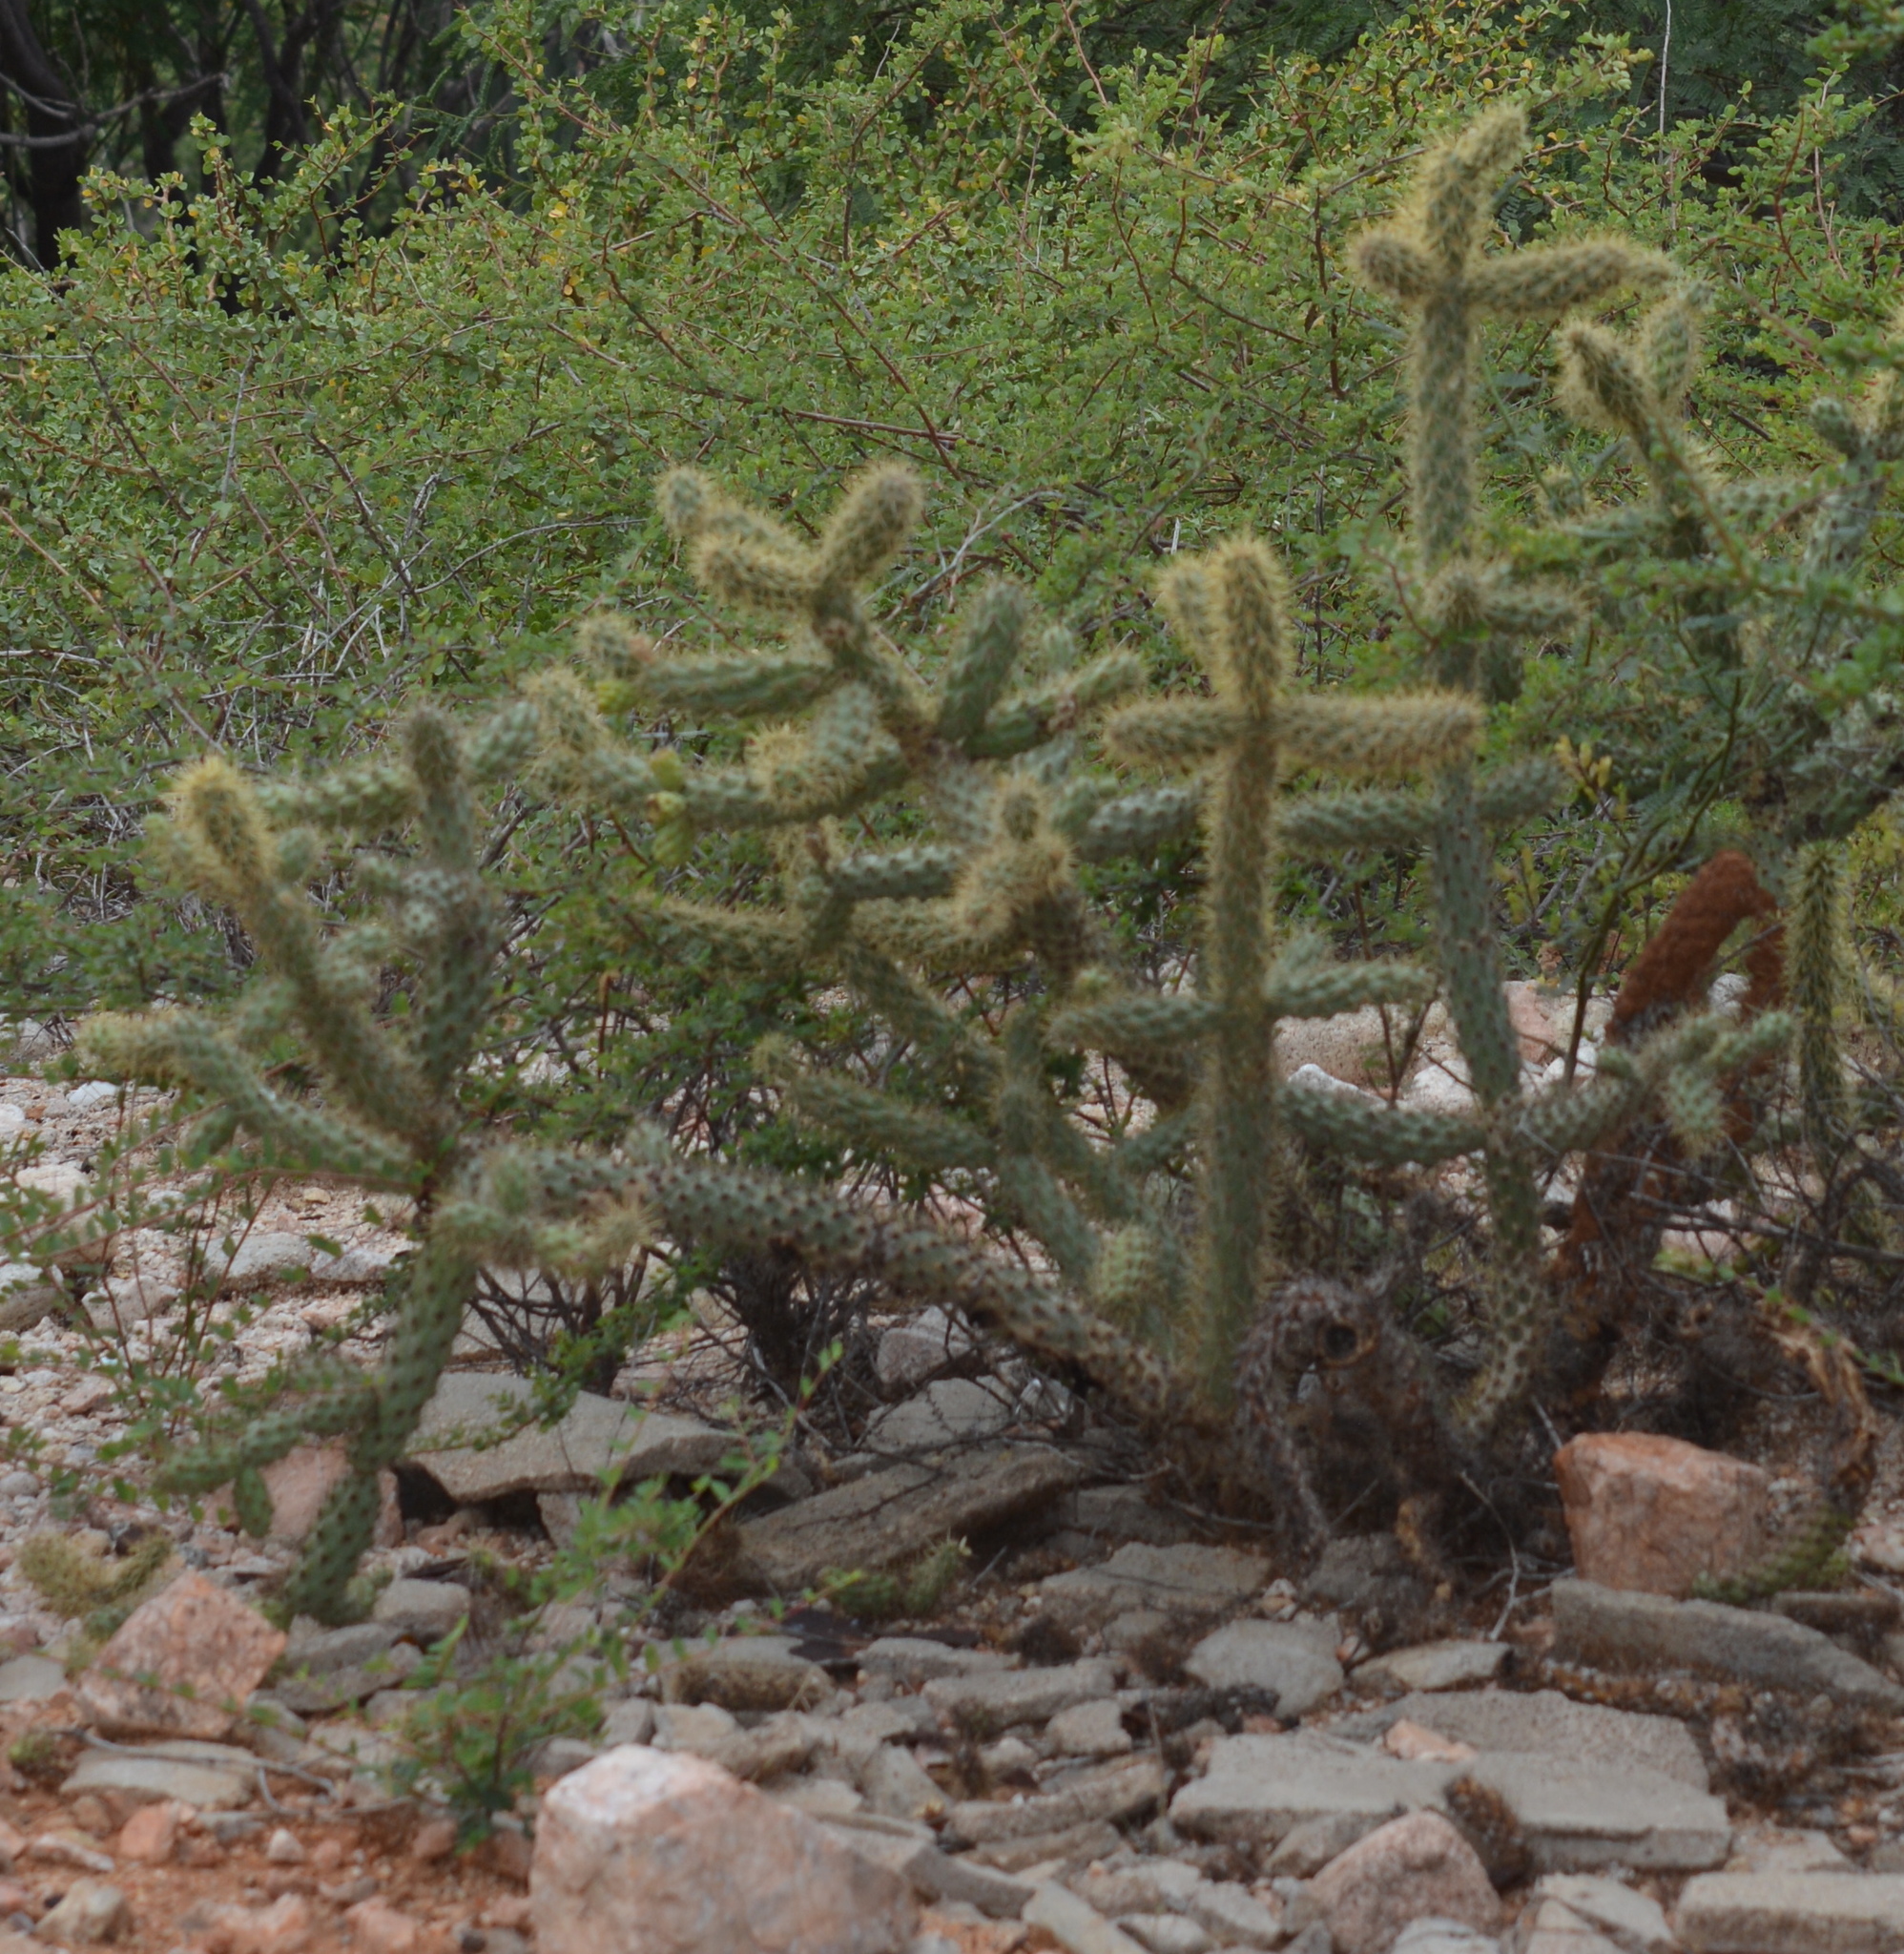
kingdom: Plantae
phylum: Tracheophyta
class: Magnoliopsida
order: Caryophyllales
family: Cactaceae
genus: Cylindropuntia
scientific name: Cylindropuntia alcahes
